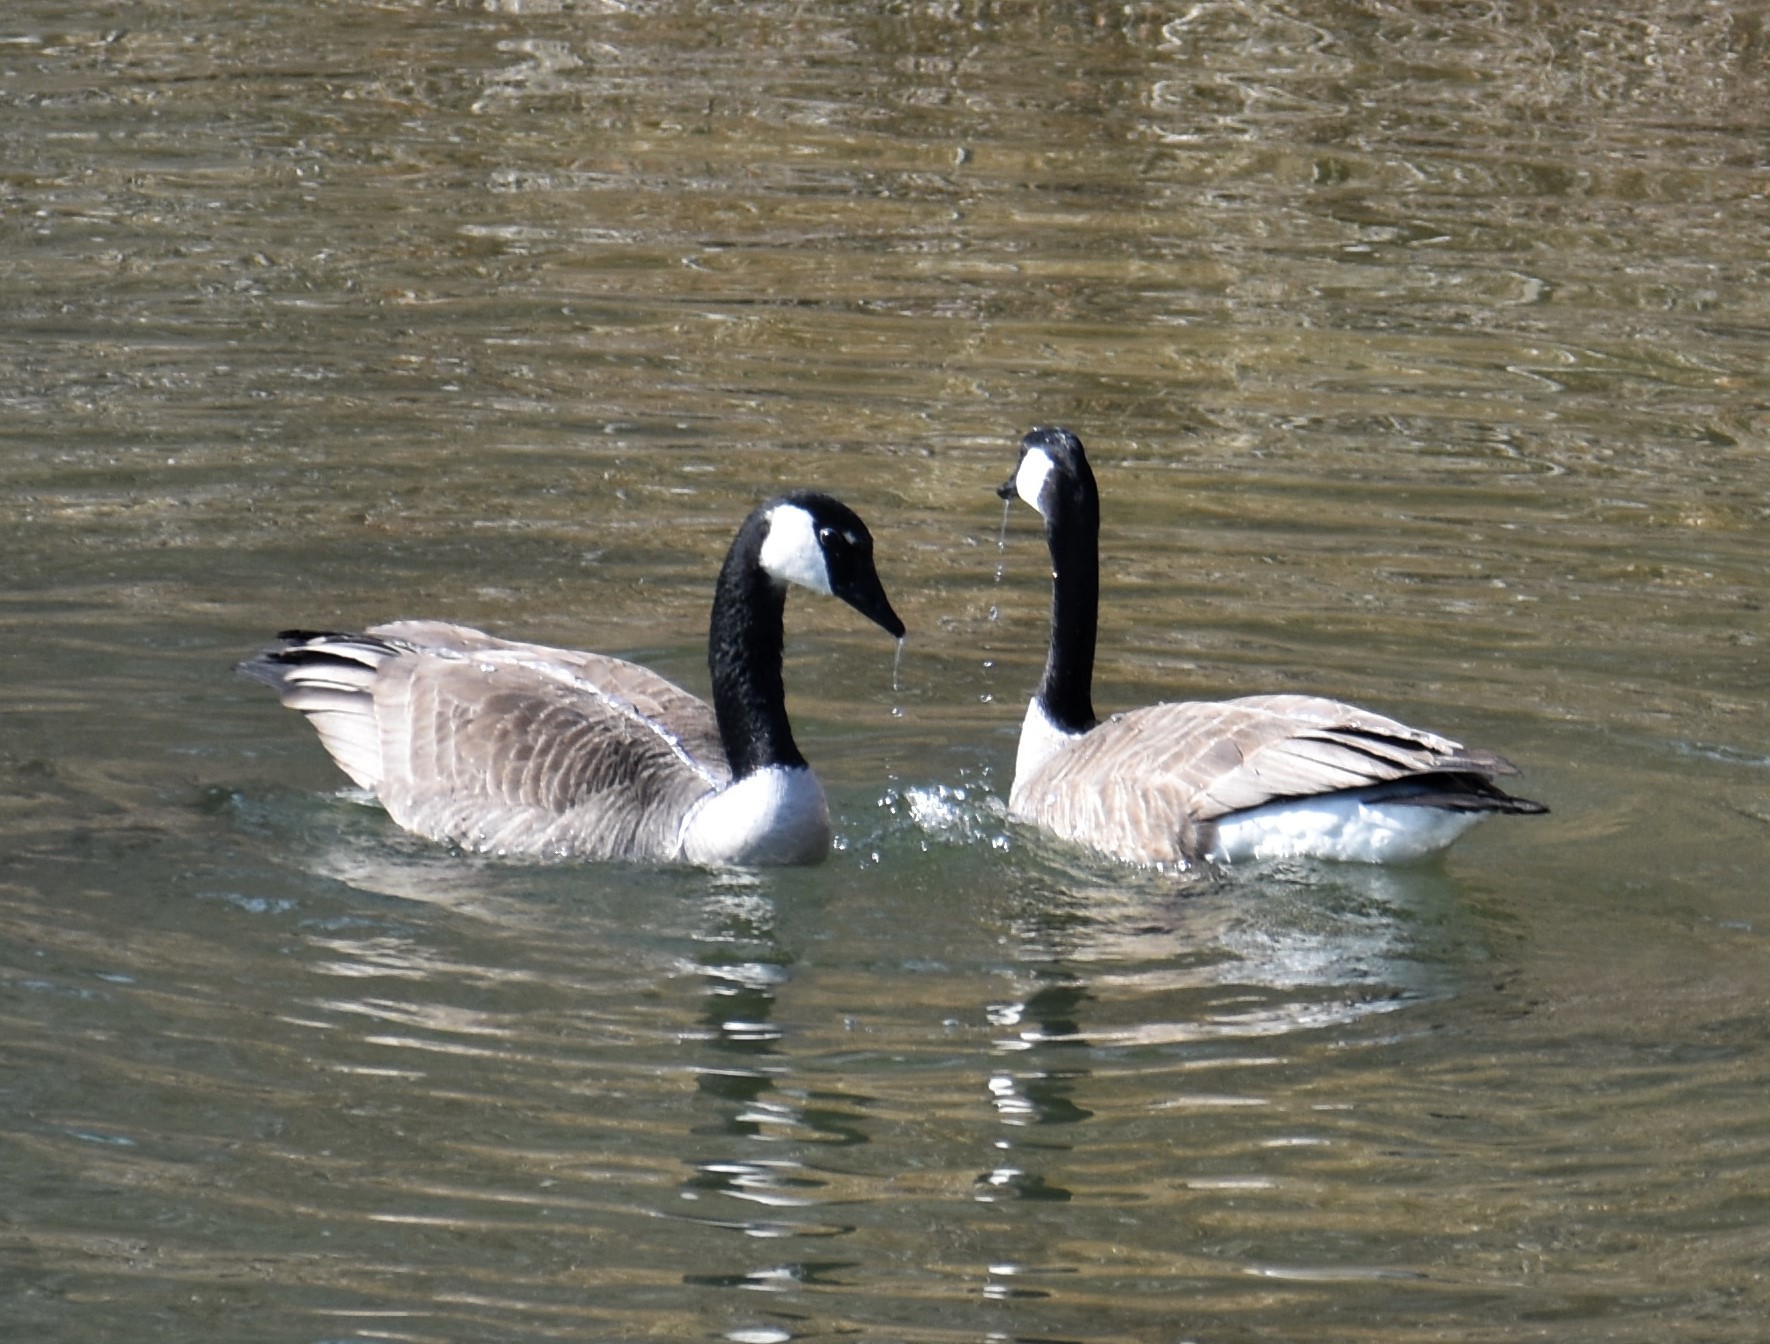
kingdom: Animalia
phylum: Chordata
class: Aves
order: Anseriformes
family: Anatidae
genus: Branta
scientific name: Branta canadensis
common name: Canada goose
